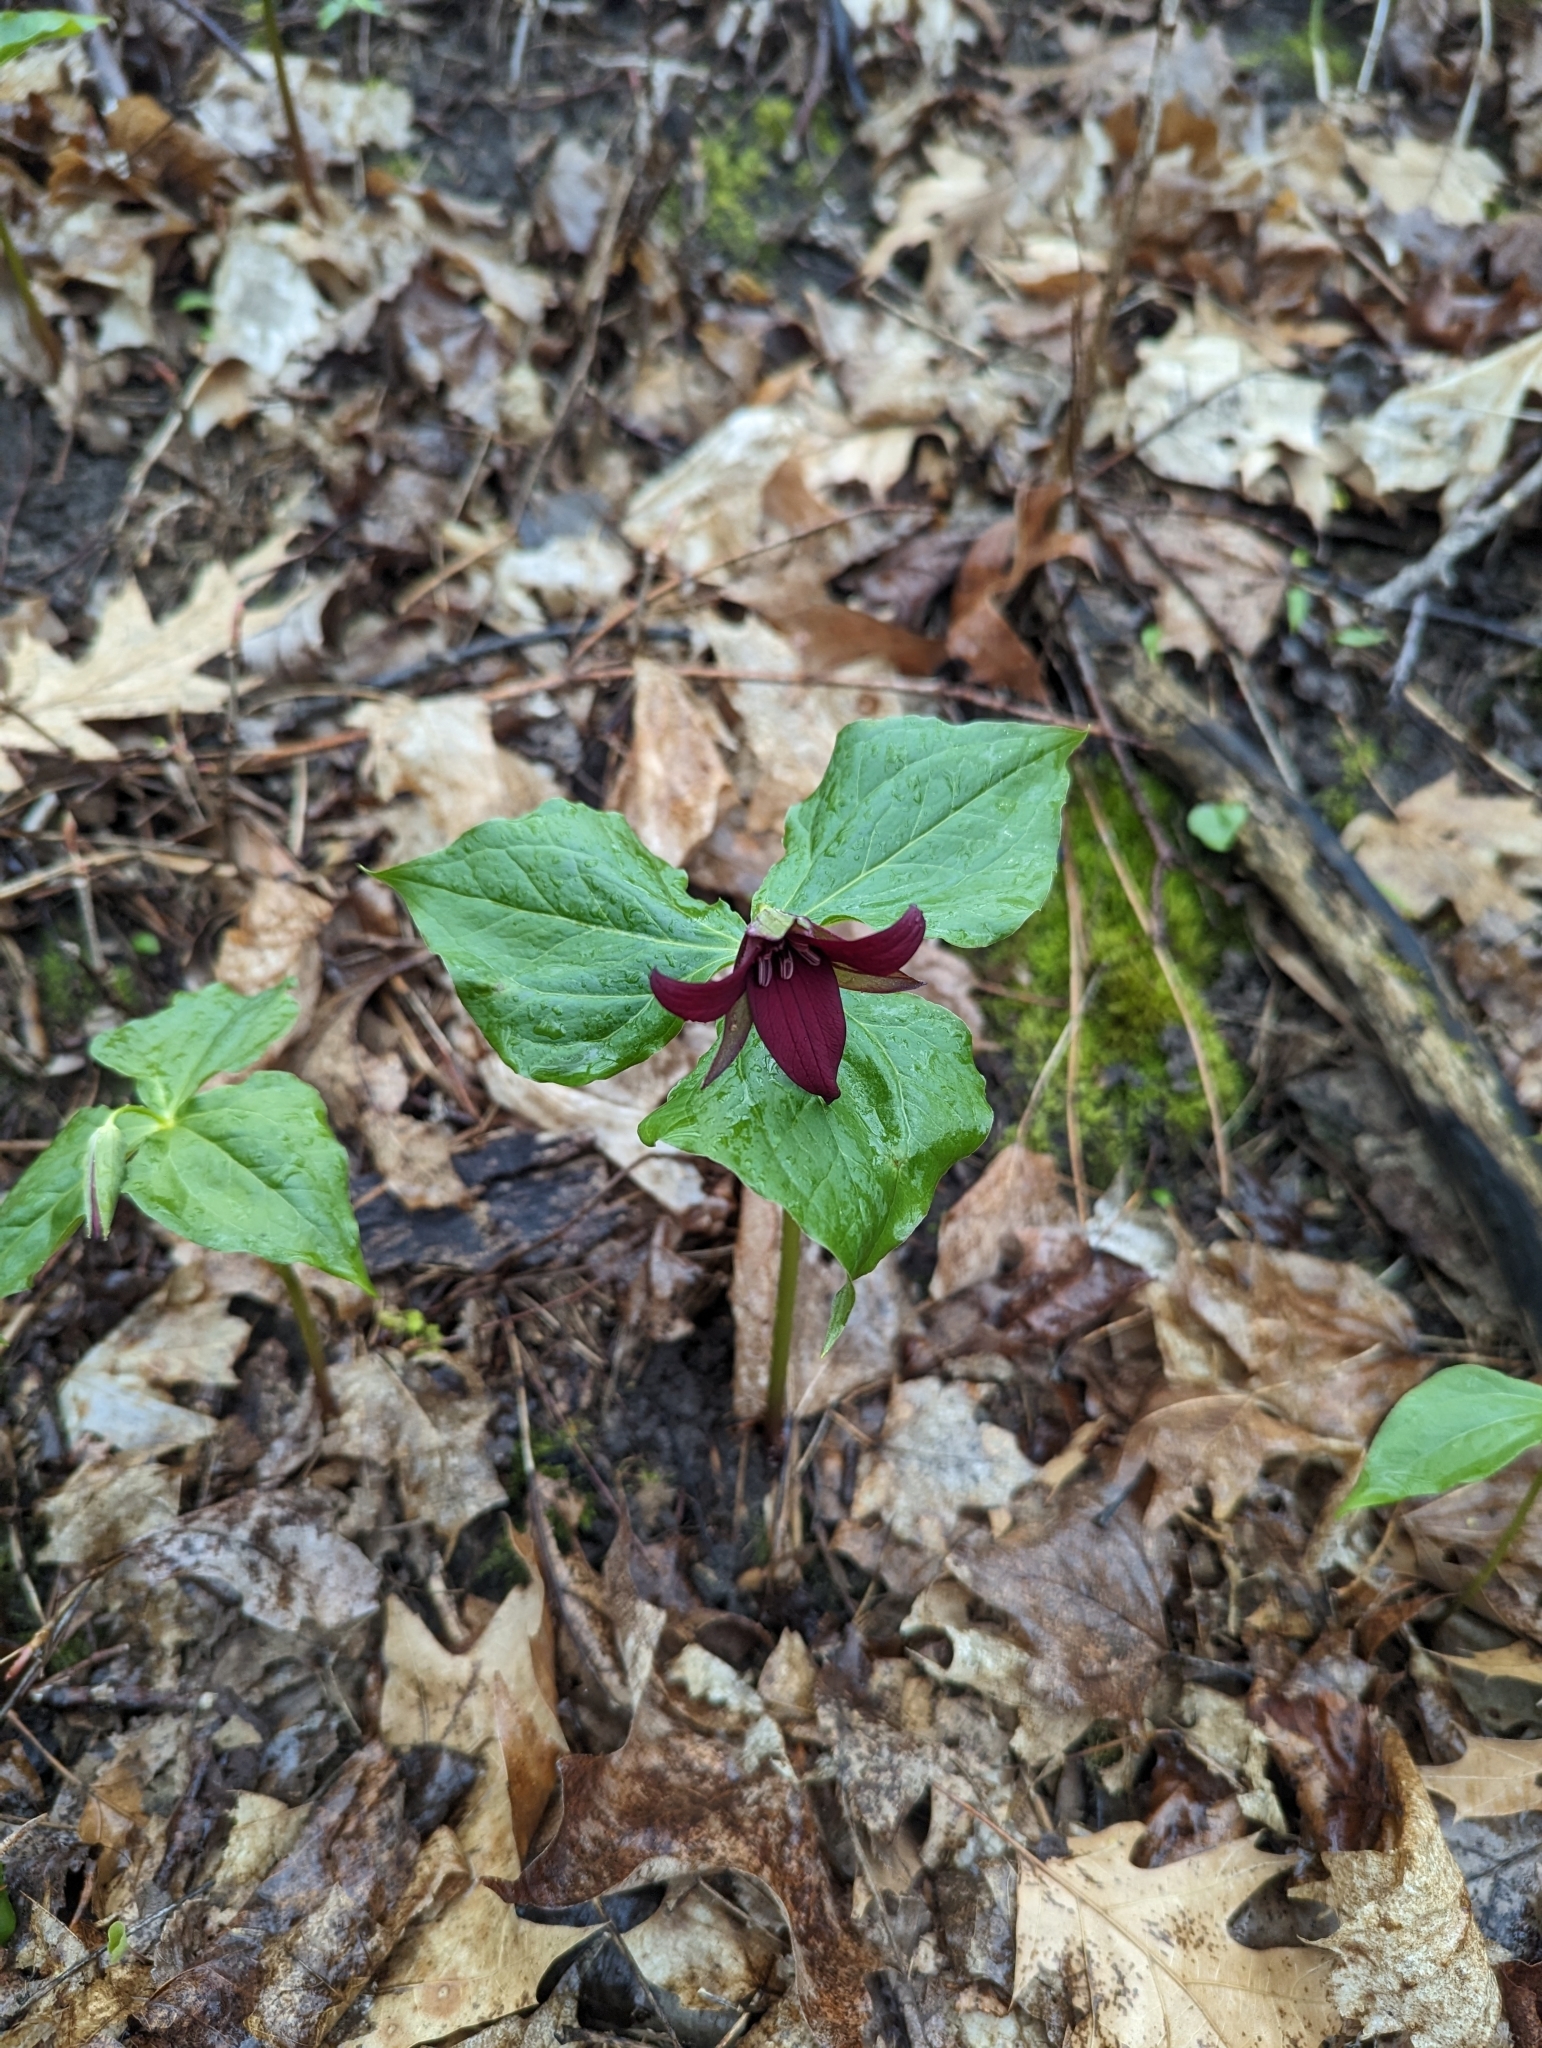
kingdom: Plantae
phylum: Tracheophyta
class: Liliopsida
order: Liliales
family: Melanthiaceae
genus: Trillium
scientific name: Trillium erectum
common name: Purple trillium
